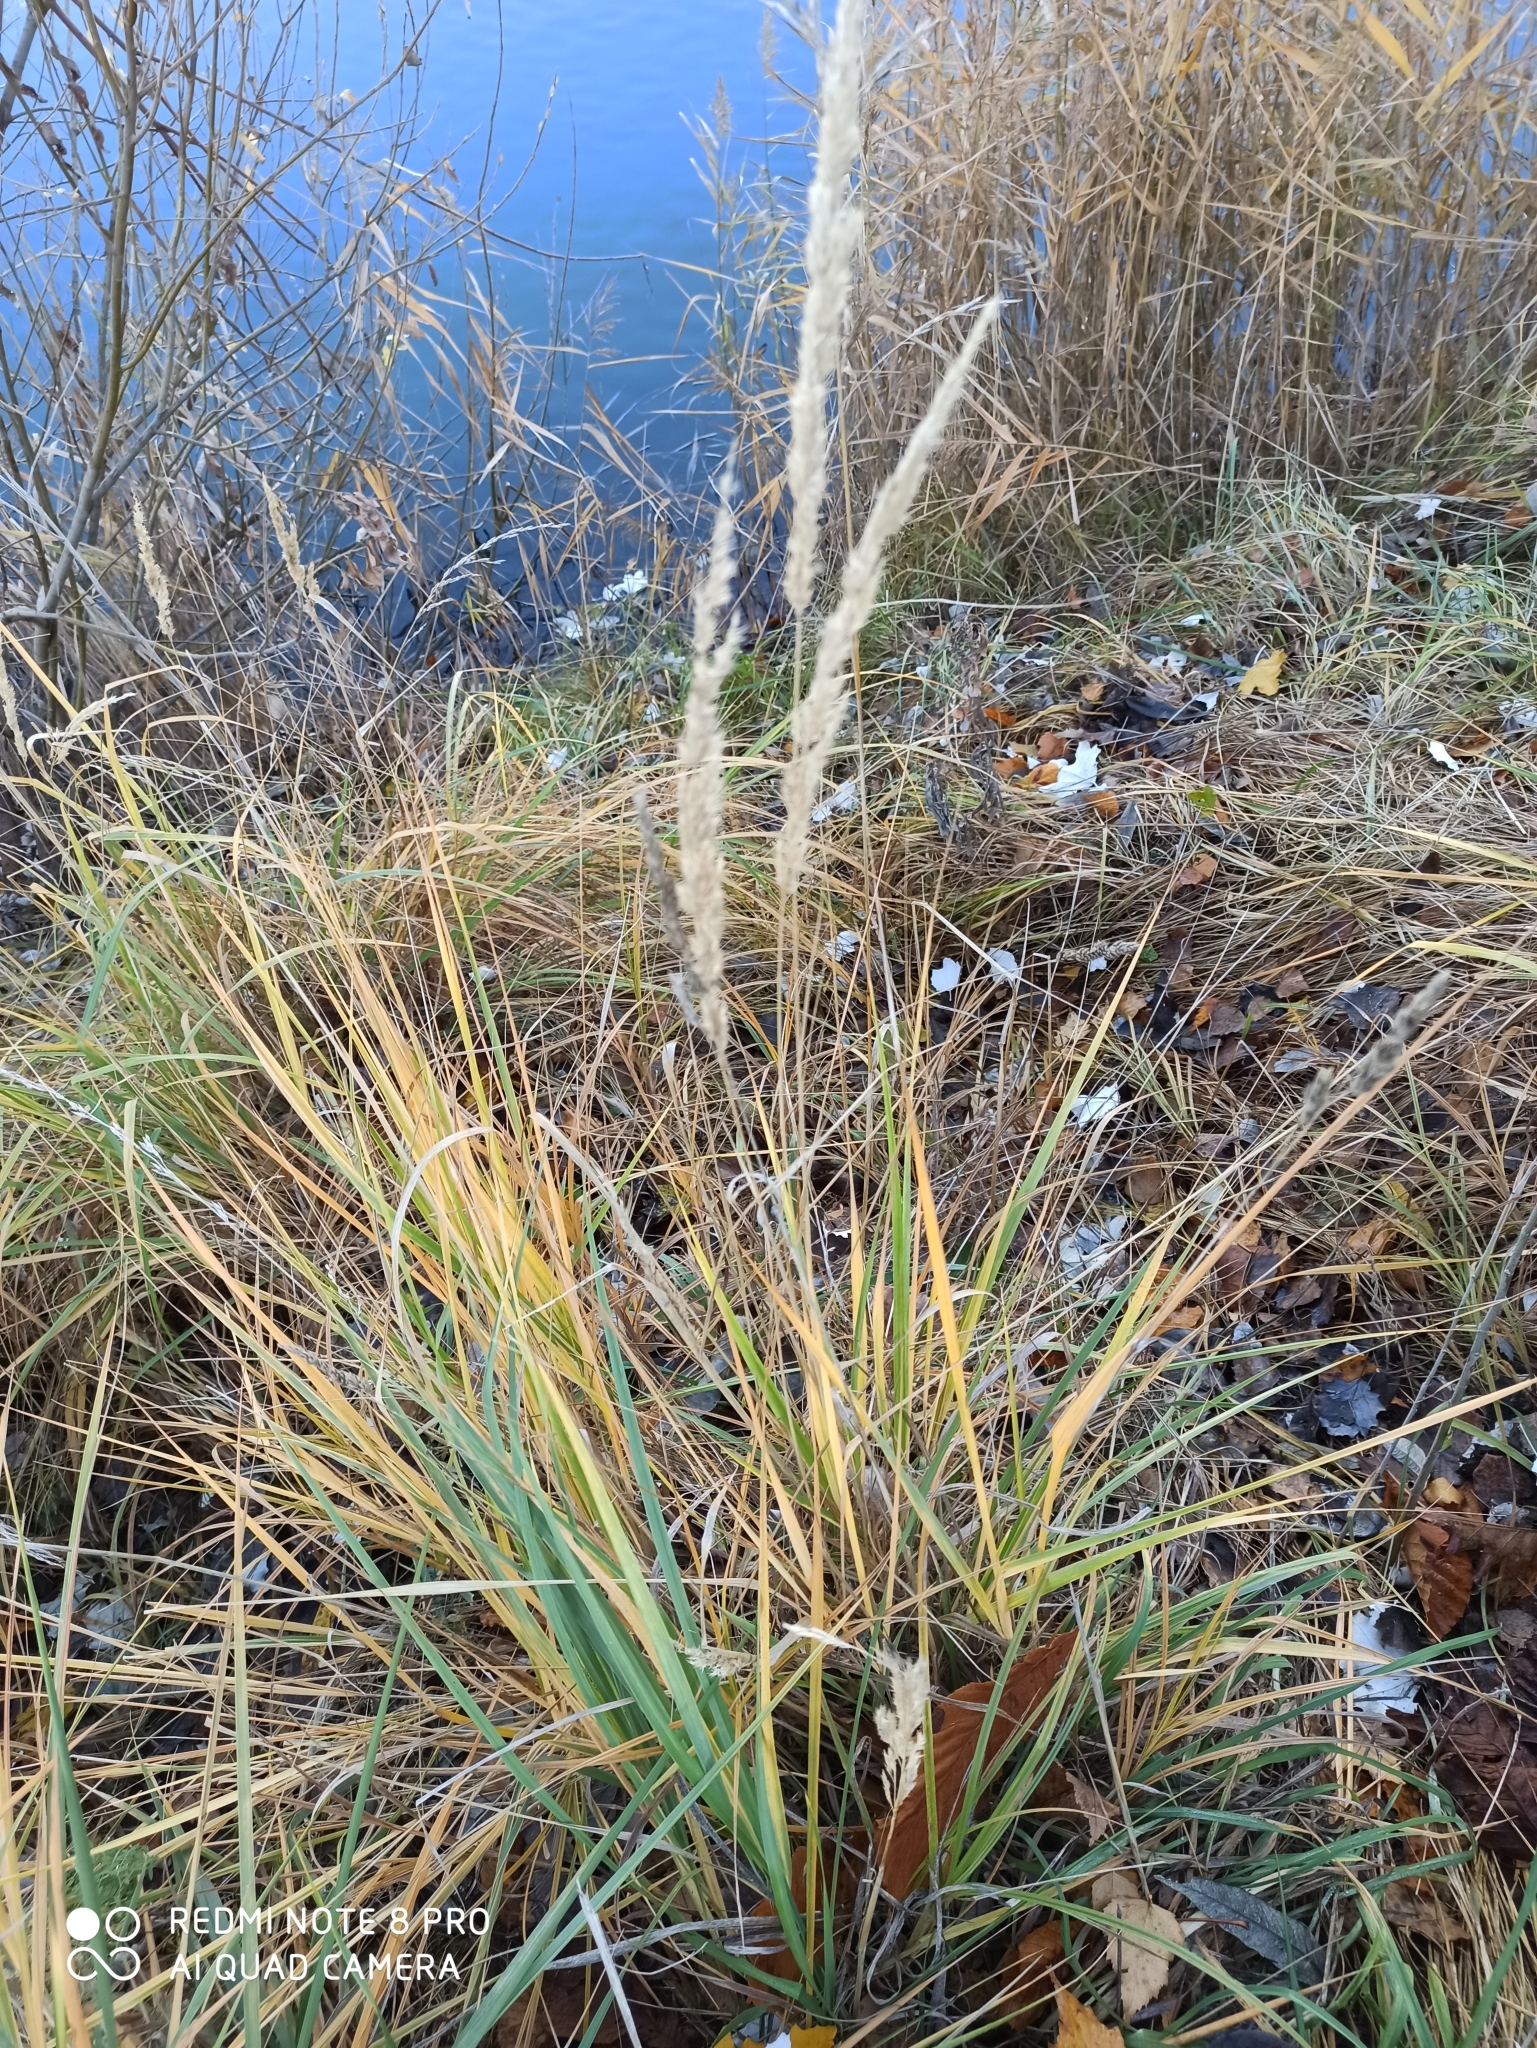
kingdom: Plantae
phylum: Tracheophyta
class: Liliopsida
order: Poales
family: Poaceae
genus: Calamagrostis
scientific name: Calamagrostis epigejos
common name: Wood small-reed
